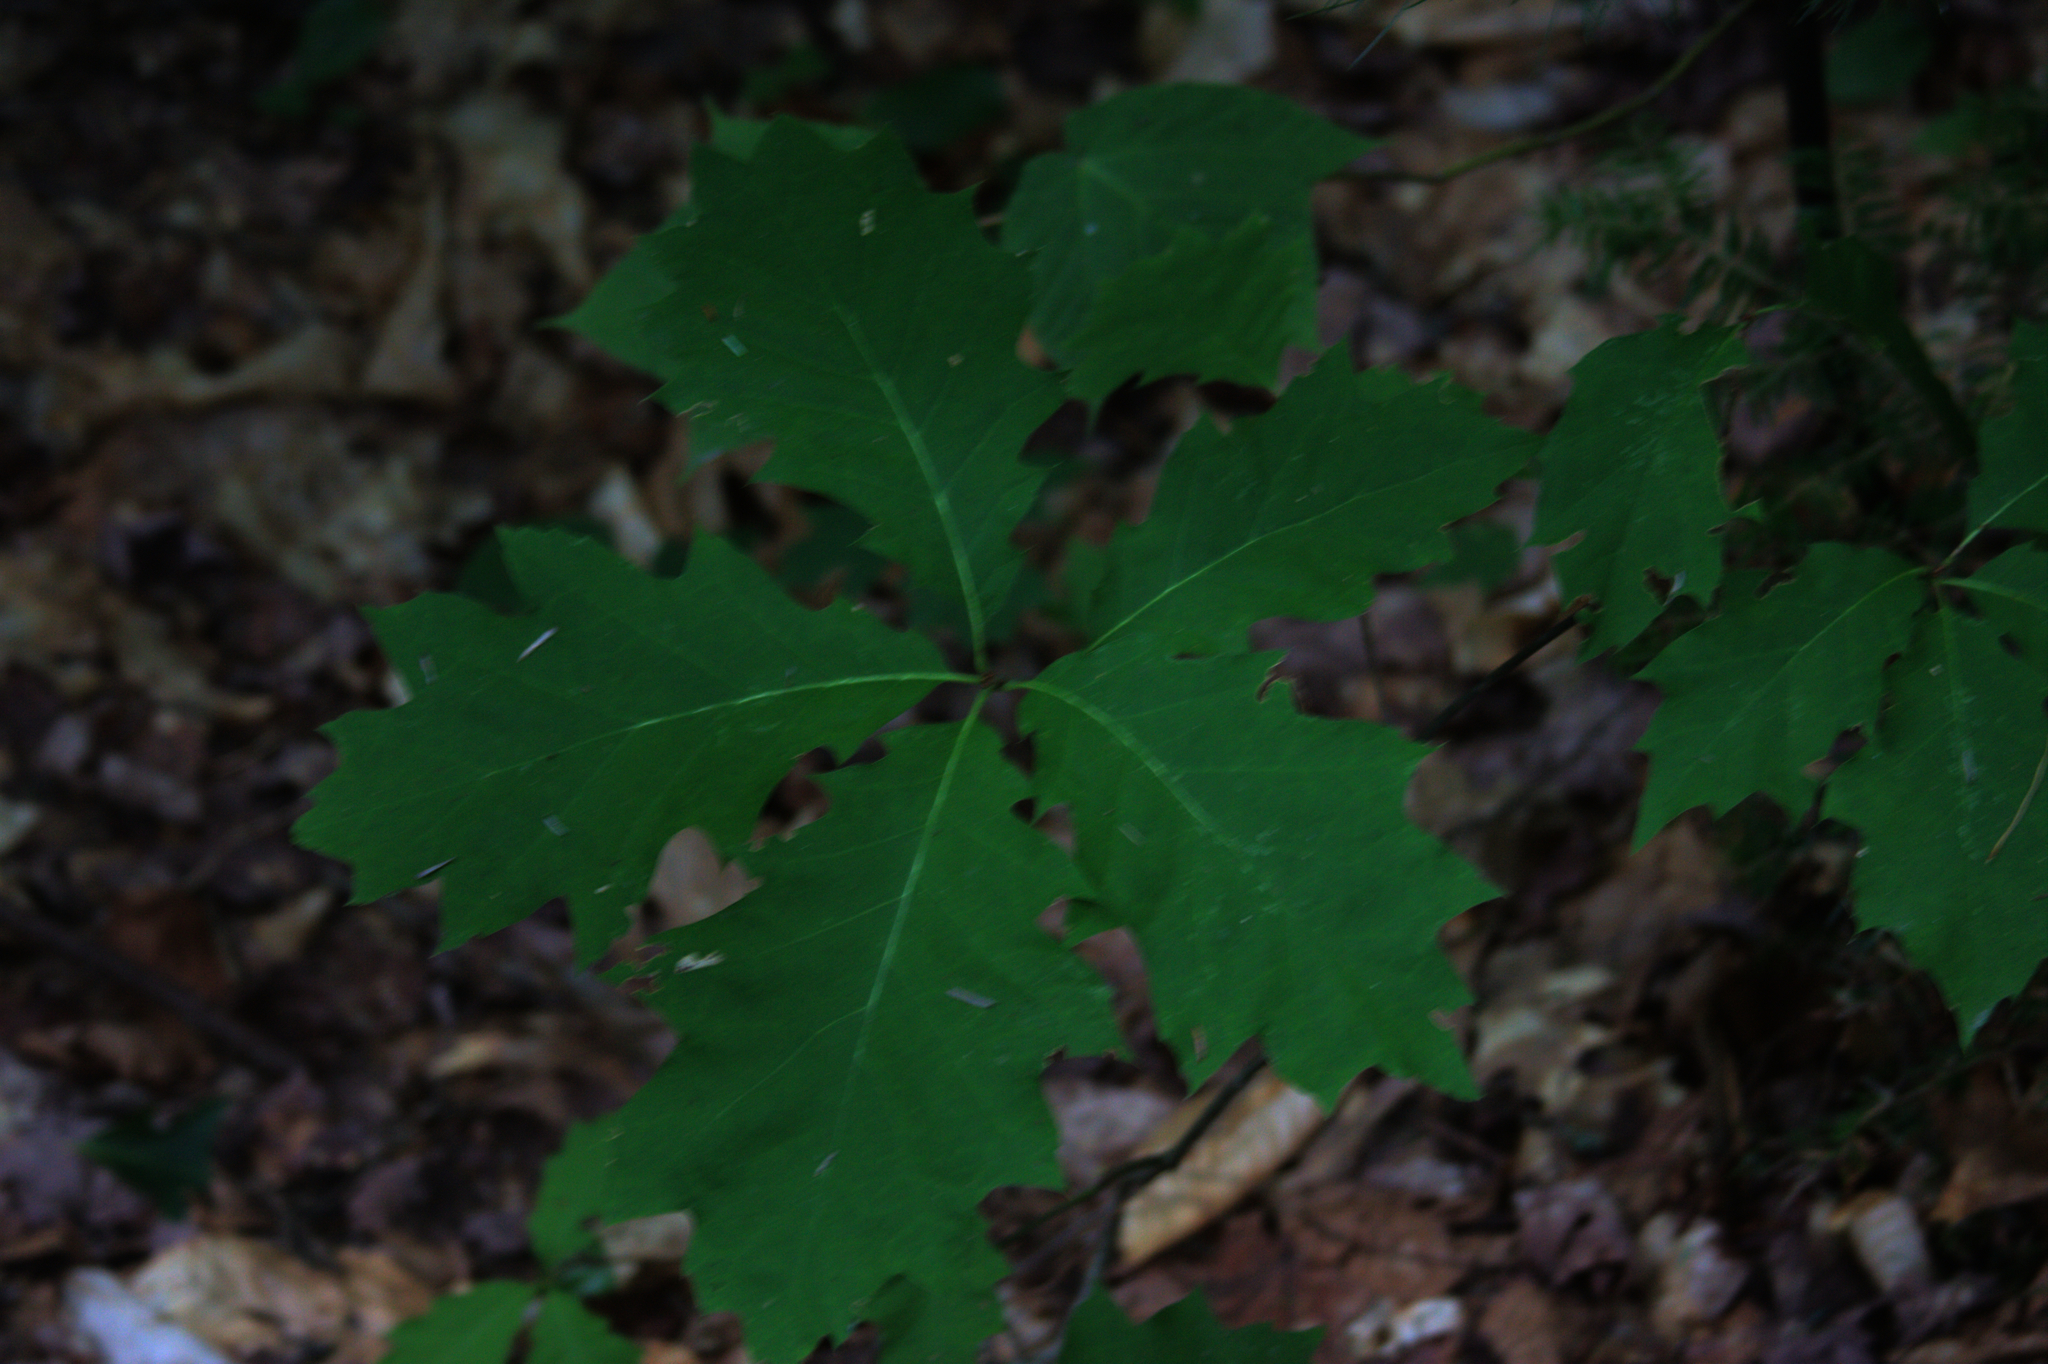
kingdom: Plantae
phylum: Tracheophyta
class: Magnoliopsida
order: Fagales
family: Fagaceae
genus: Quercus
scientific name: Quercus rubra
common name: Red oak
